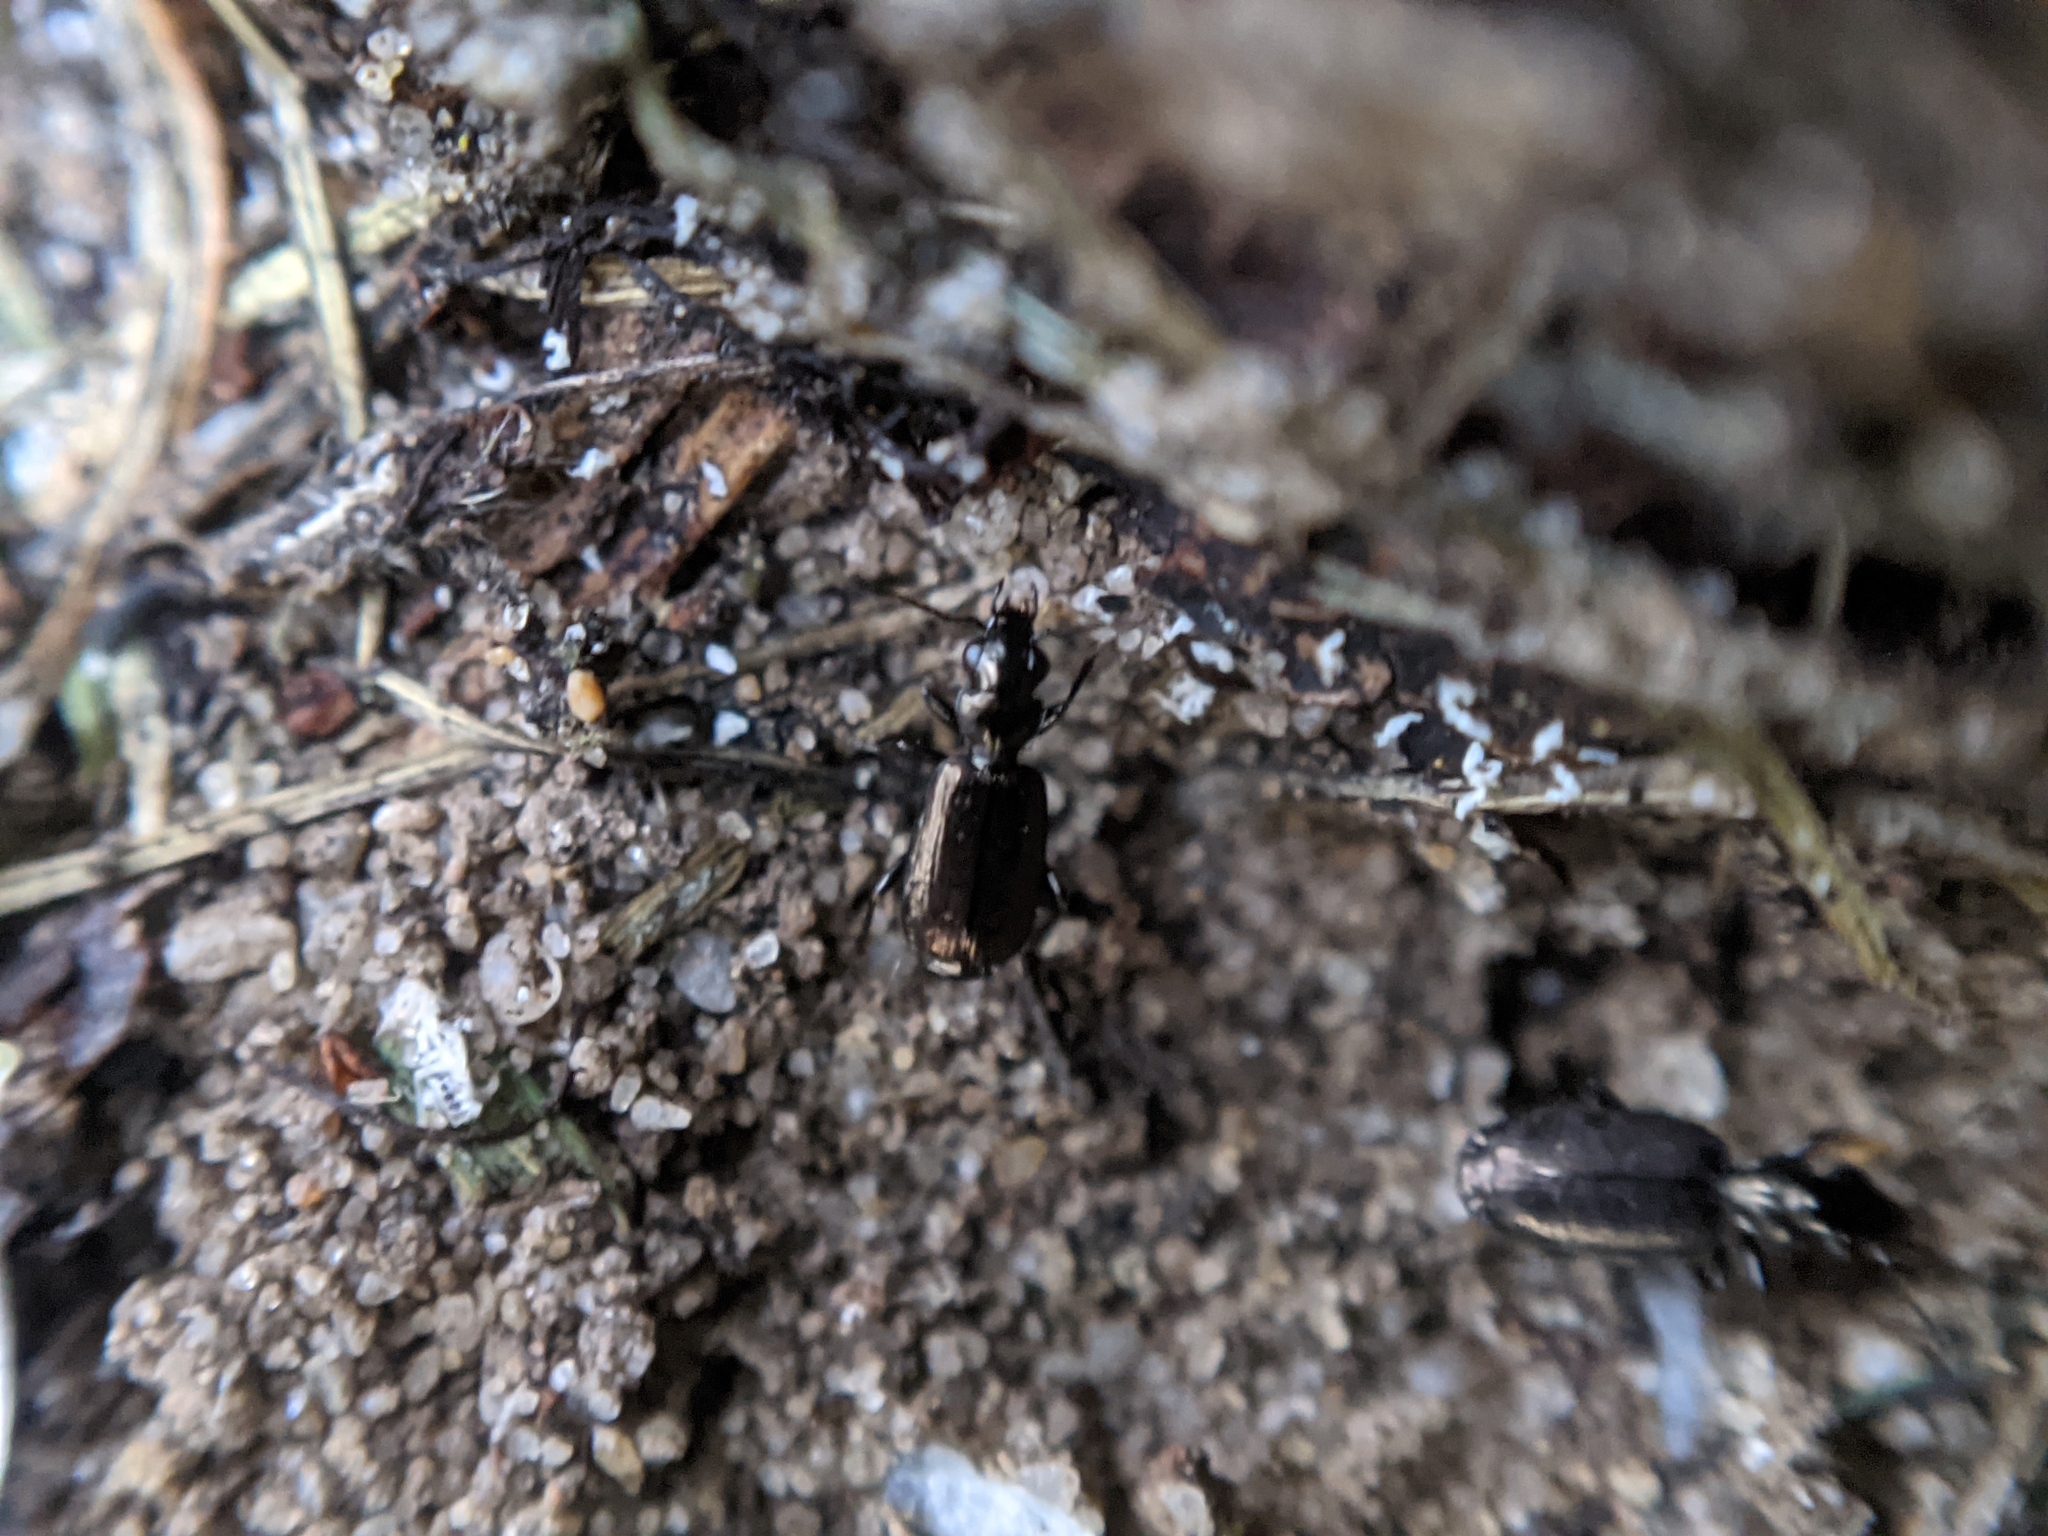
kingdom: Animalia
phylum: Arthropoda
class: Insecta
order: Coleoptera
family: Carabidae
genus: Syntomus
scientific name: Syntomus foveatus
